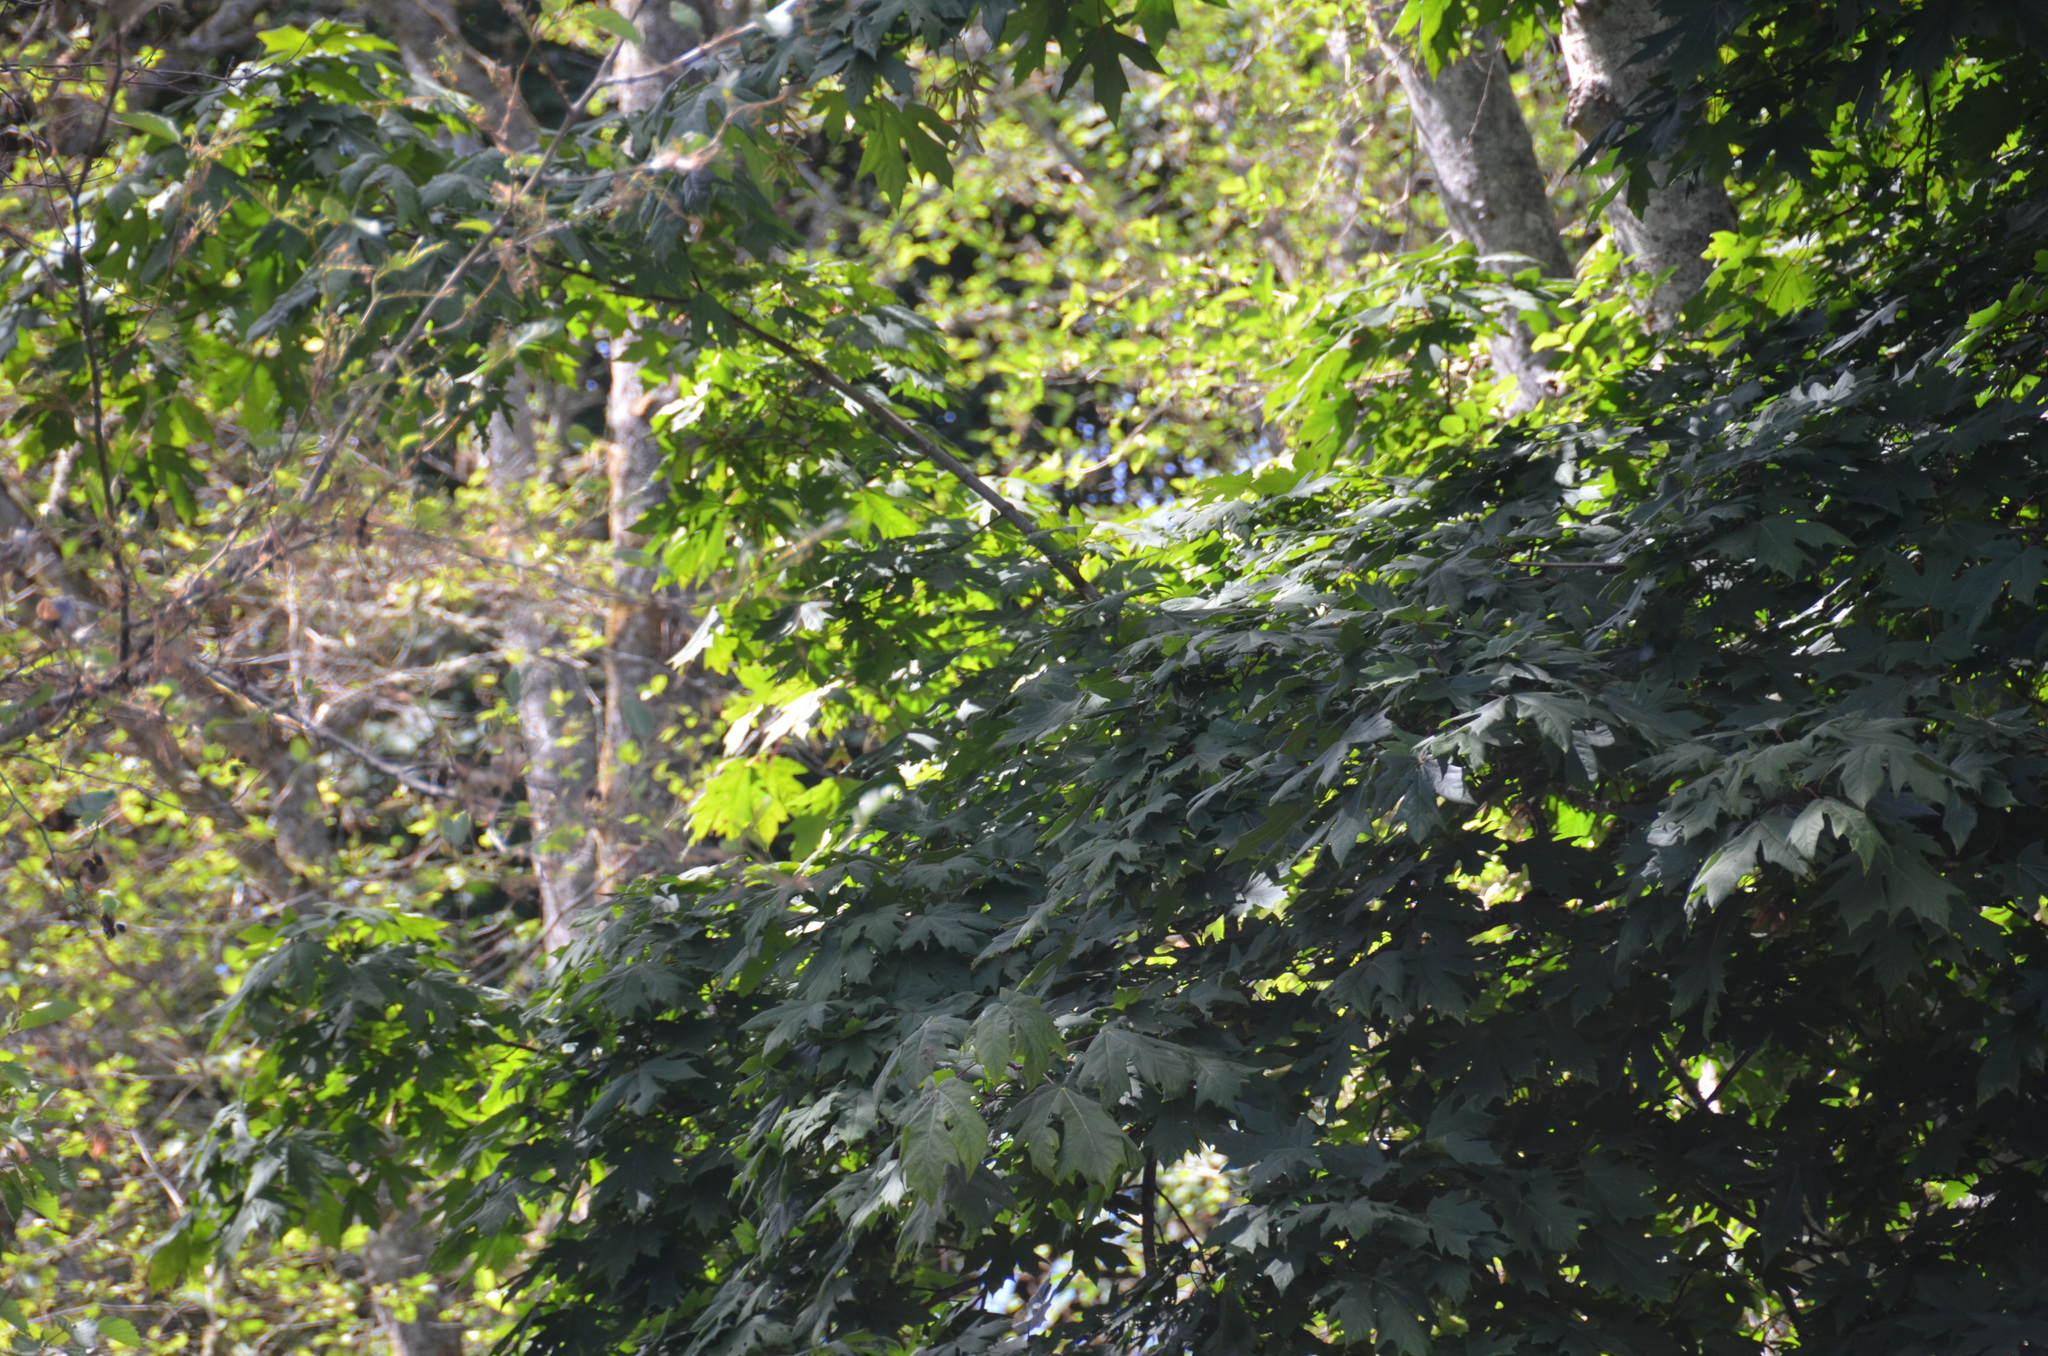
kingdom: Plantae
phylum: Tracheophyta
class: Magnoliopsida
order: Sapindales
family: Sapindaceae
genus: Acer
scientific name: Acer macrophyllum
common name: Oregon maple
